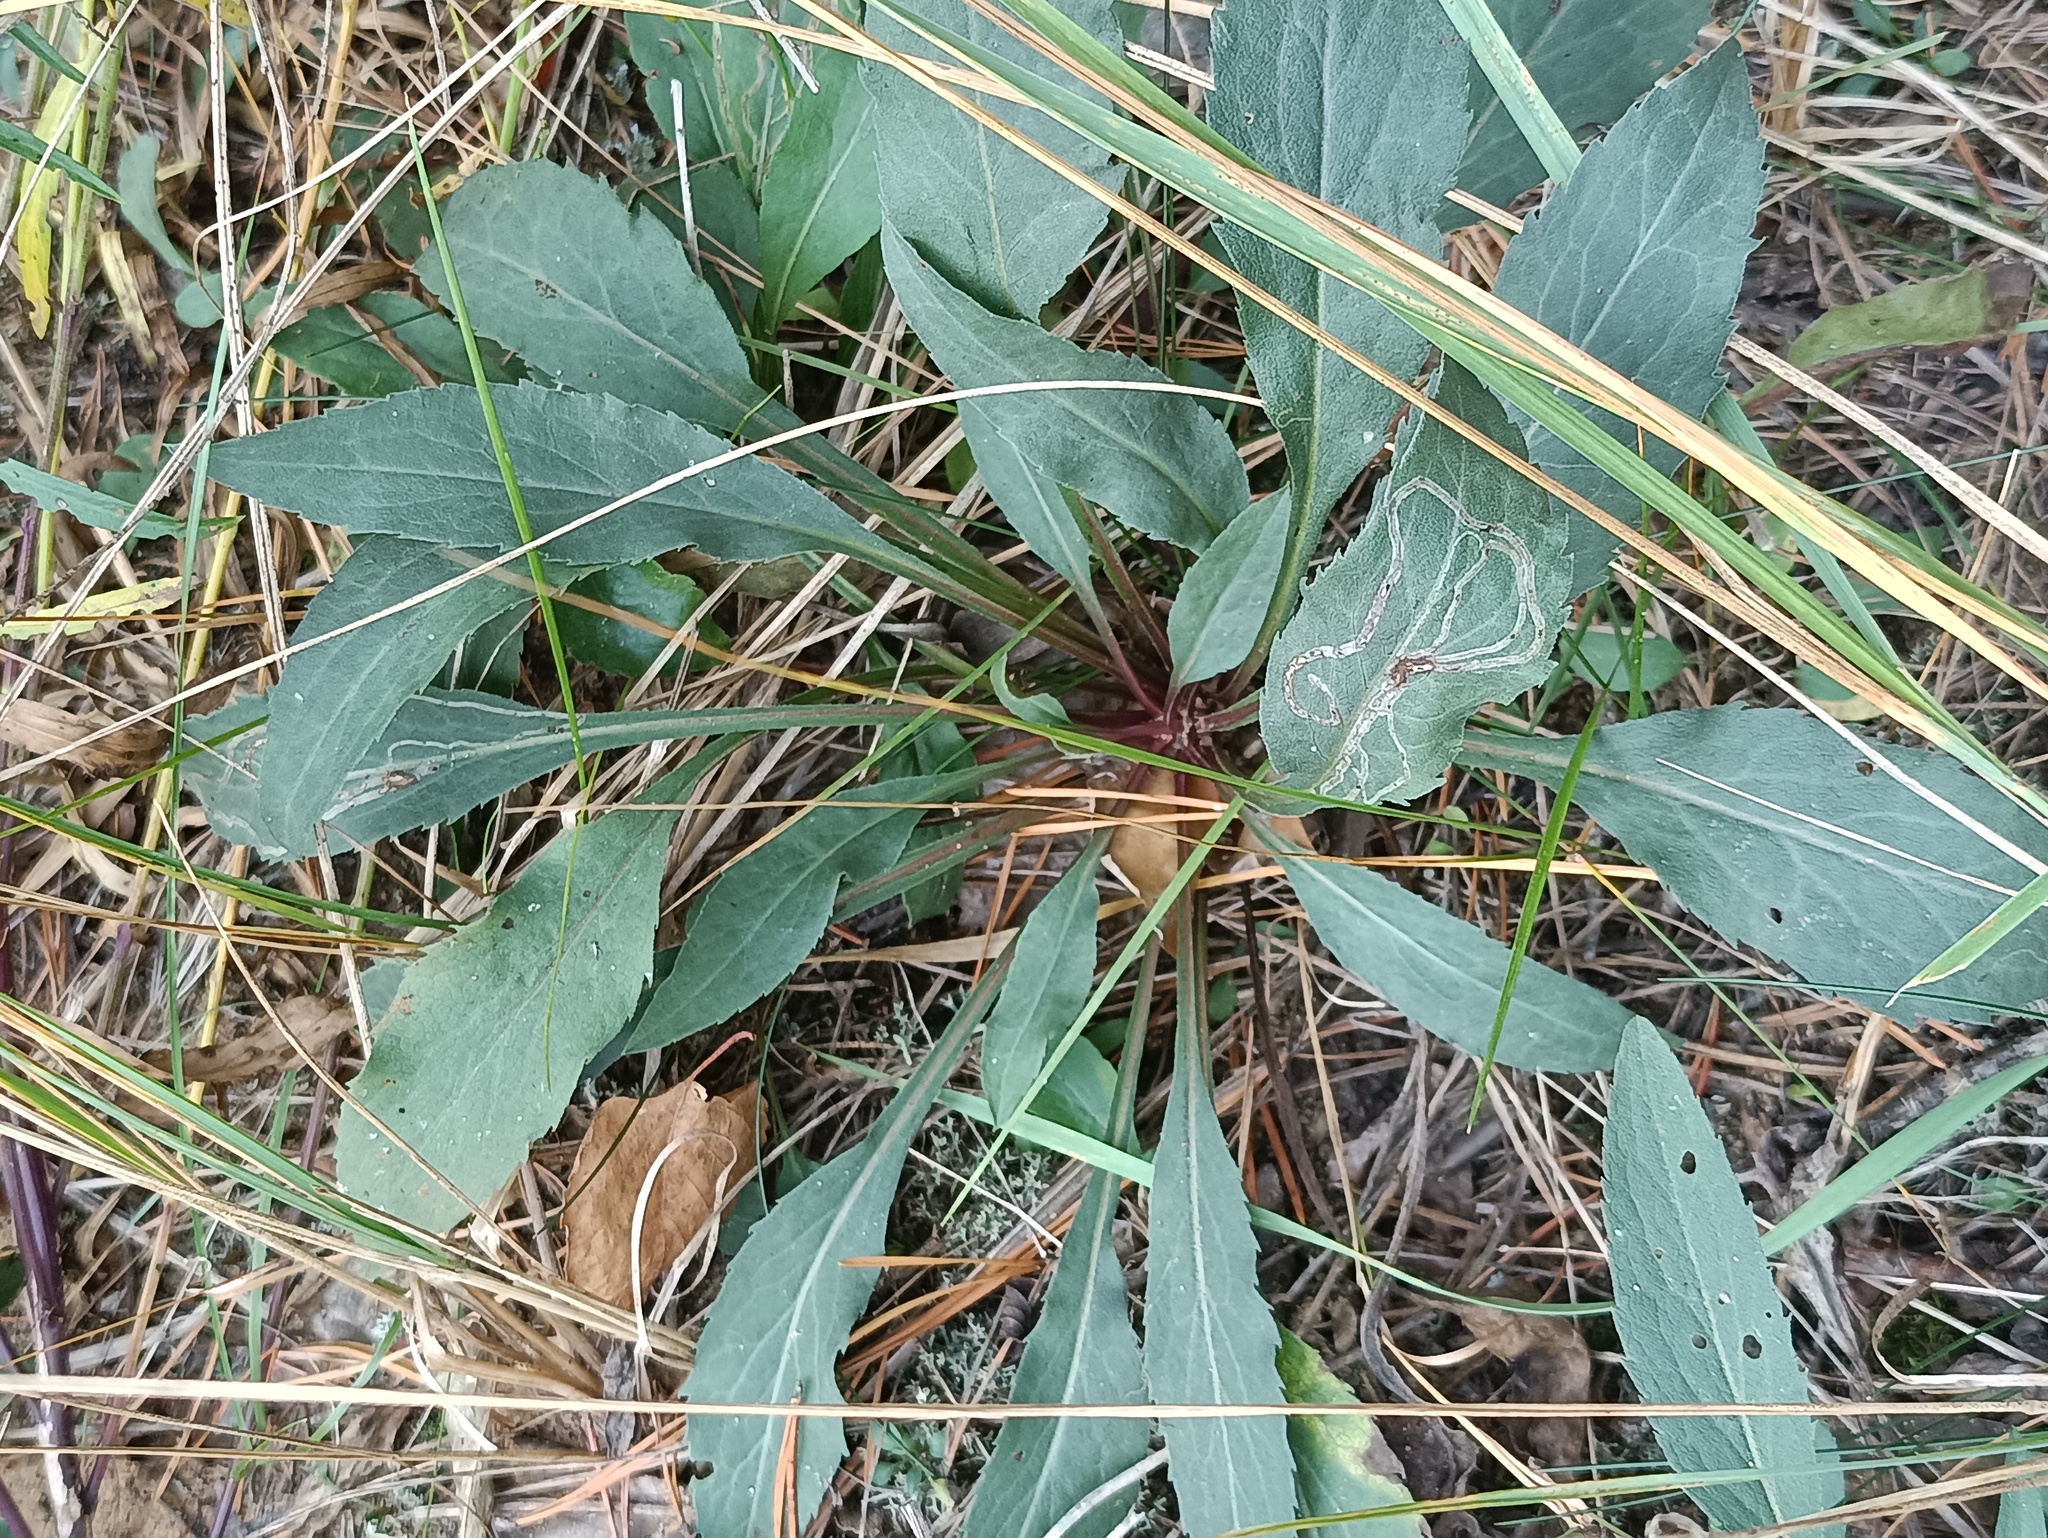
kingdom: Plantae
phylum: Tracheophyta
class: Magnoliopsida
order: Asterales
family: Asteraceae
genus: Solidago
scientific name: Solidago virgaurea
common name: Goldenrod
